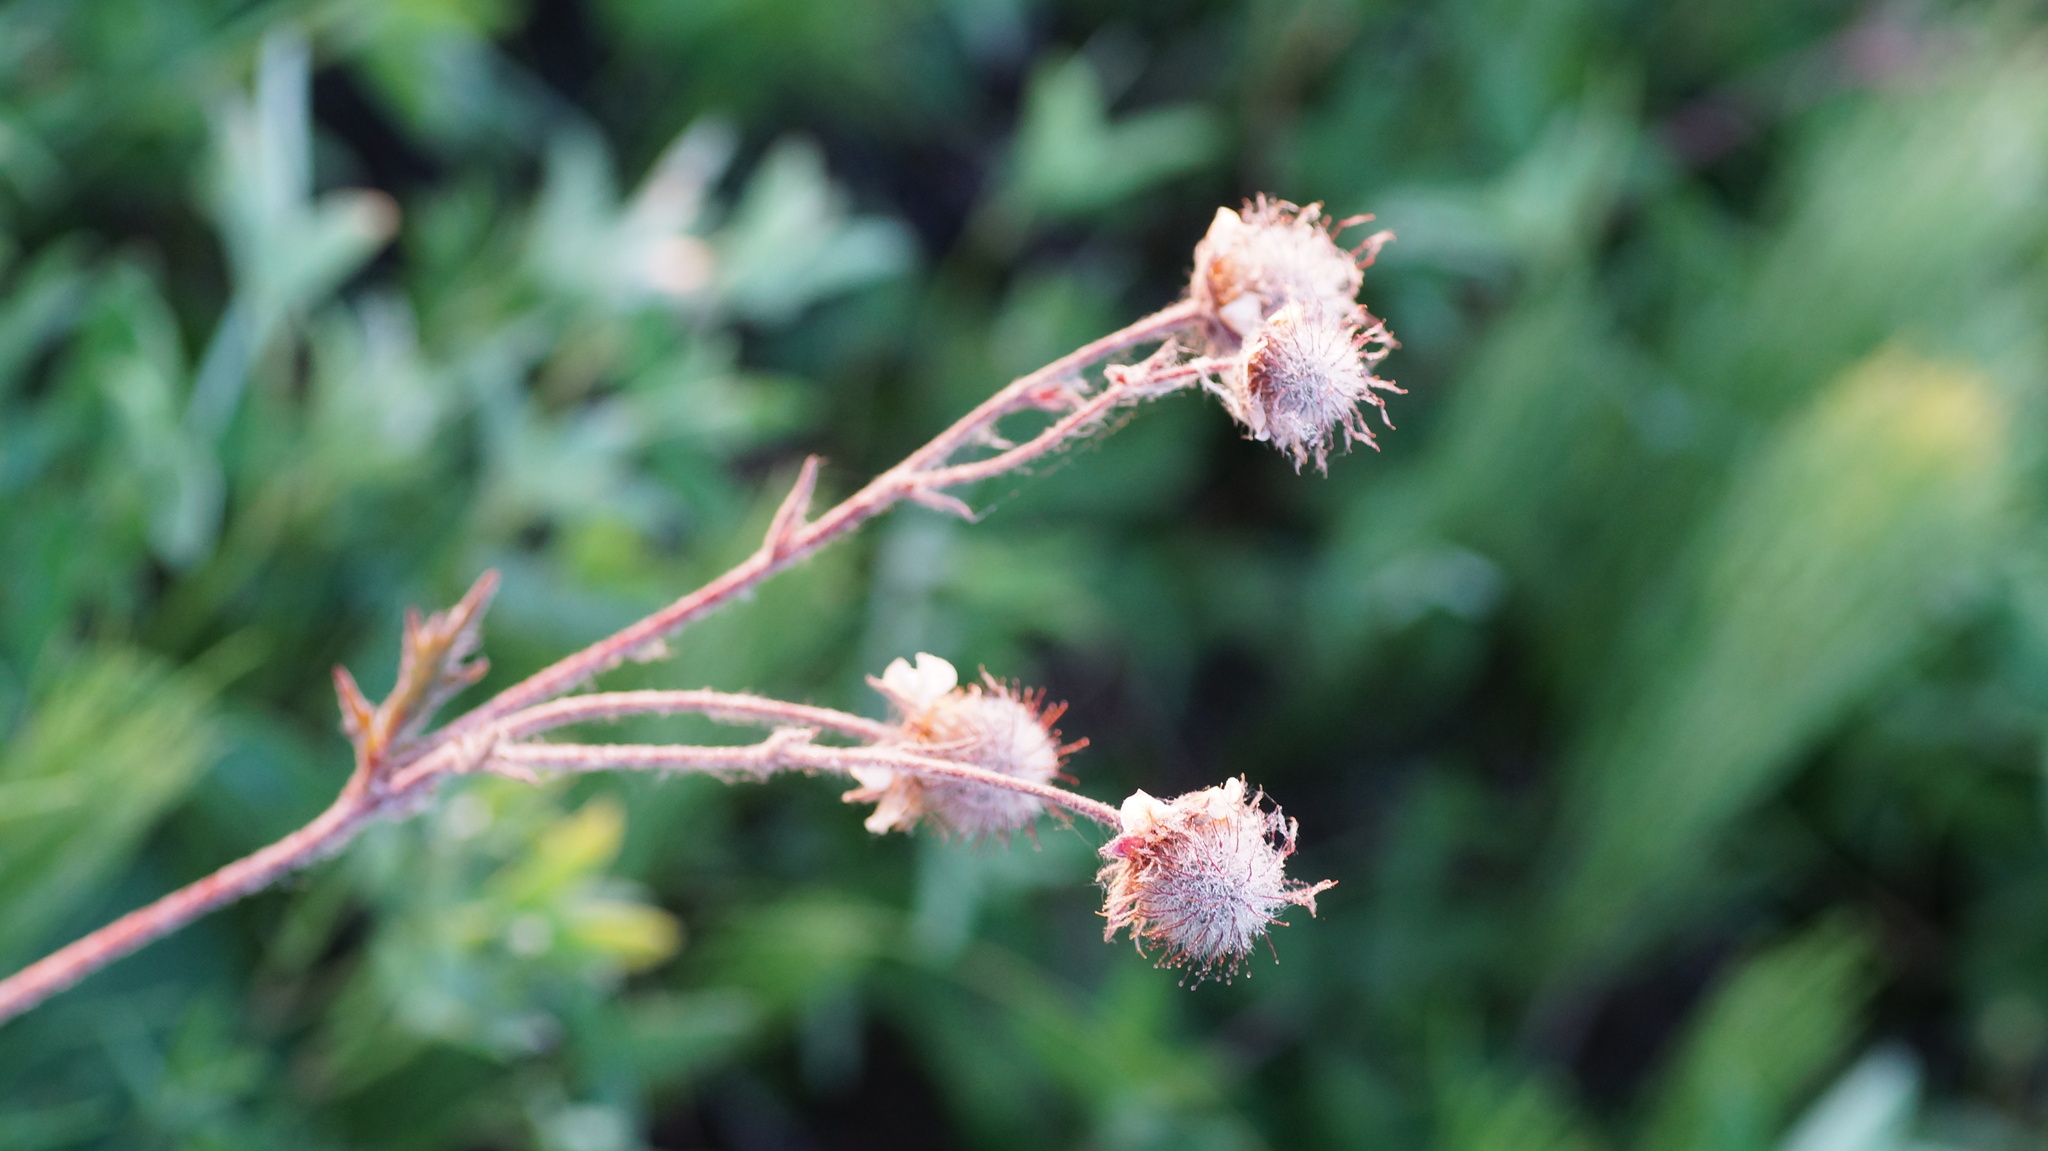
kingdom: Plantae
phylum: Tracheophyta
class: Magnoliopsida
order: Rosales
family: Rosaceae
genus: Geum
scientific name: Geum rivale
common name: Water avens
